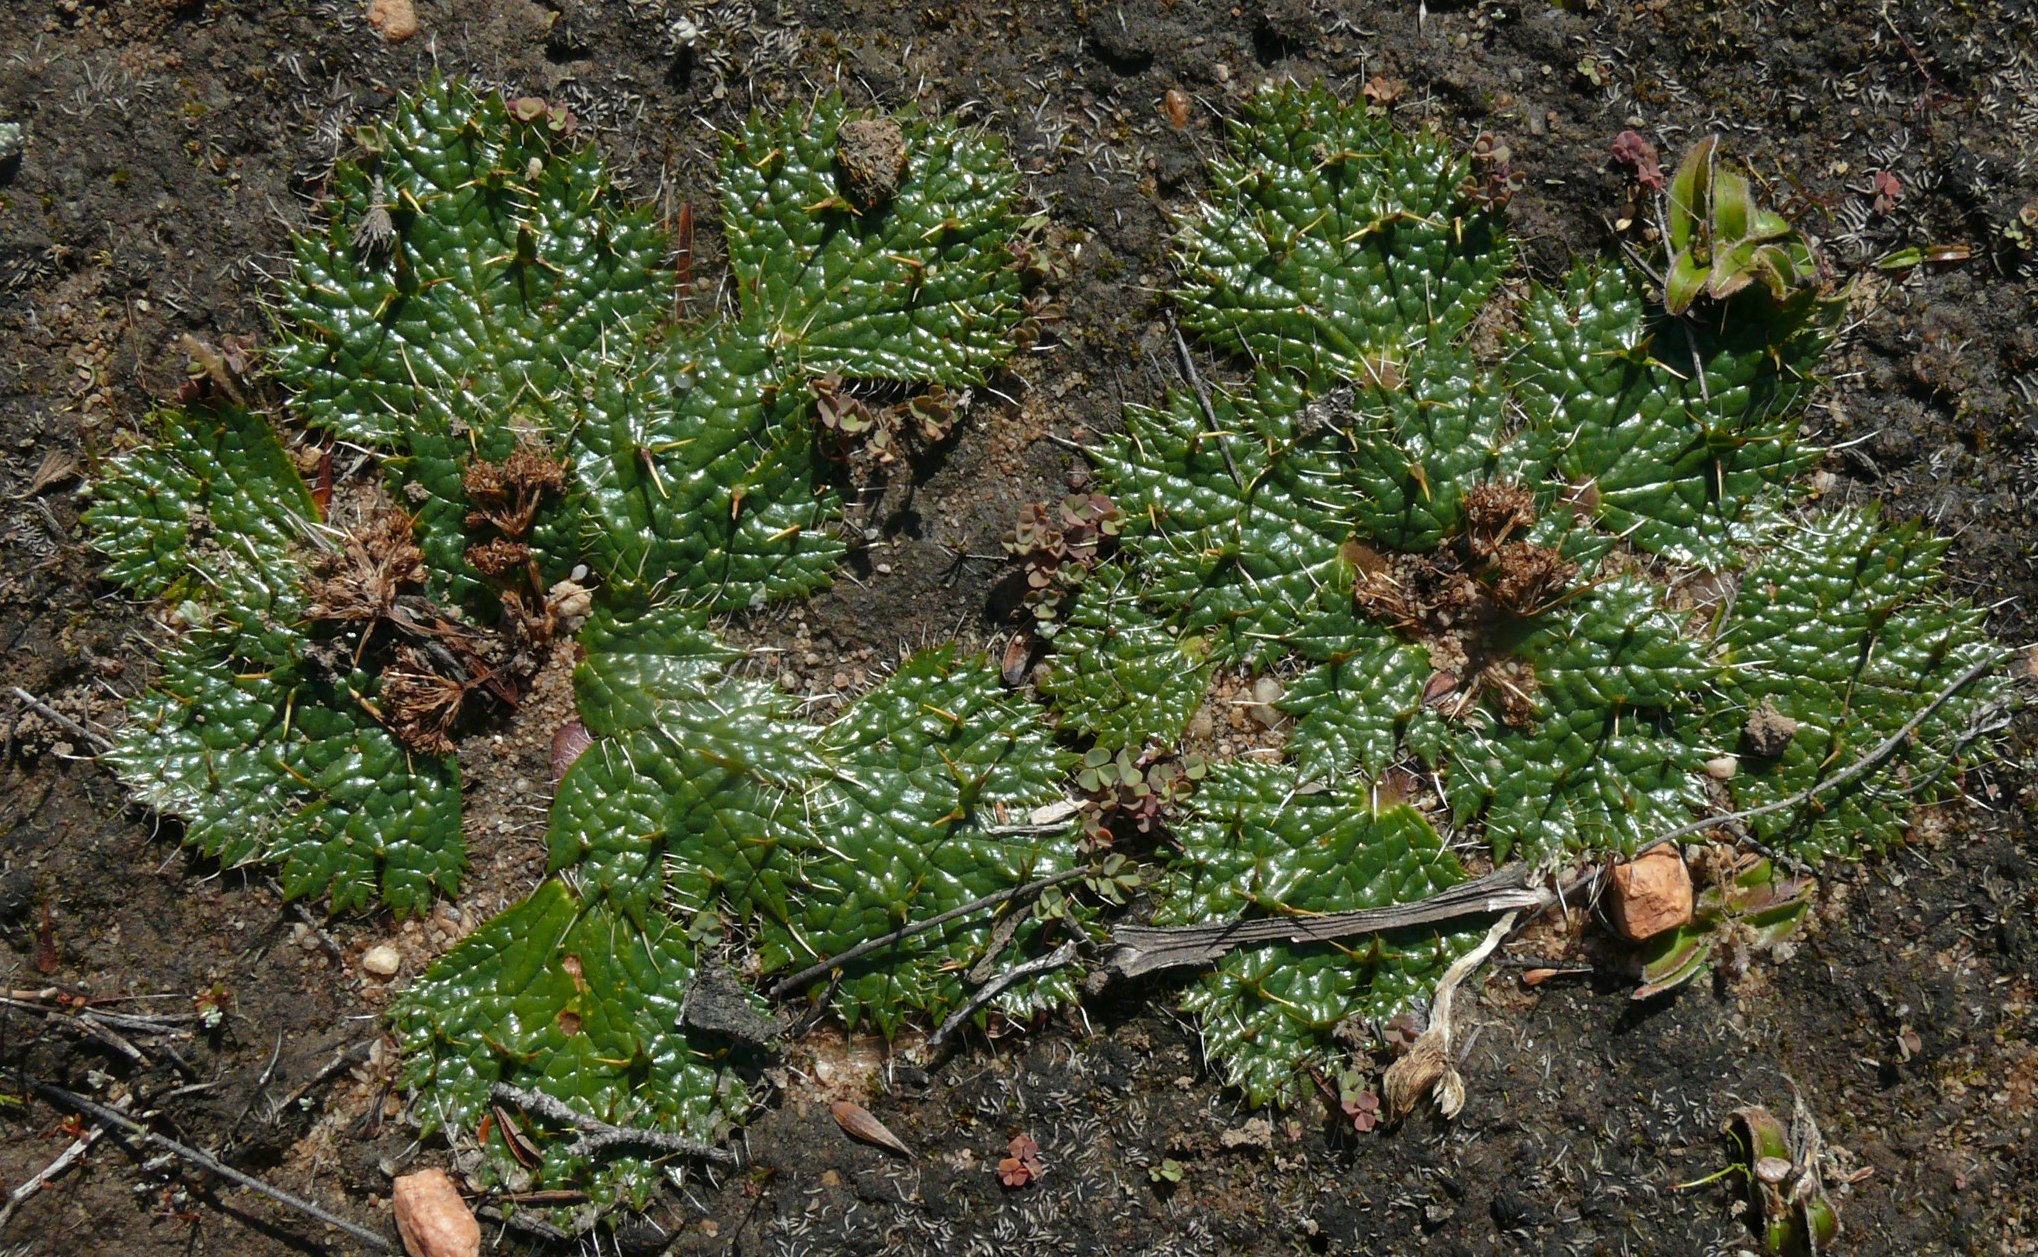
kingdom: Plantae
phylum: Tracheophyta
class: Magnoliopsida
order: Apiales
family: Apiaceae
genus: Arctopus
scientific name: Arctopus monacanthus
